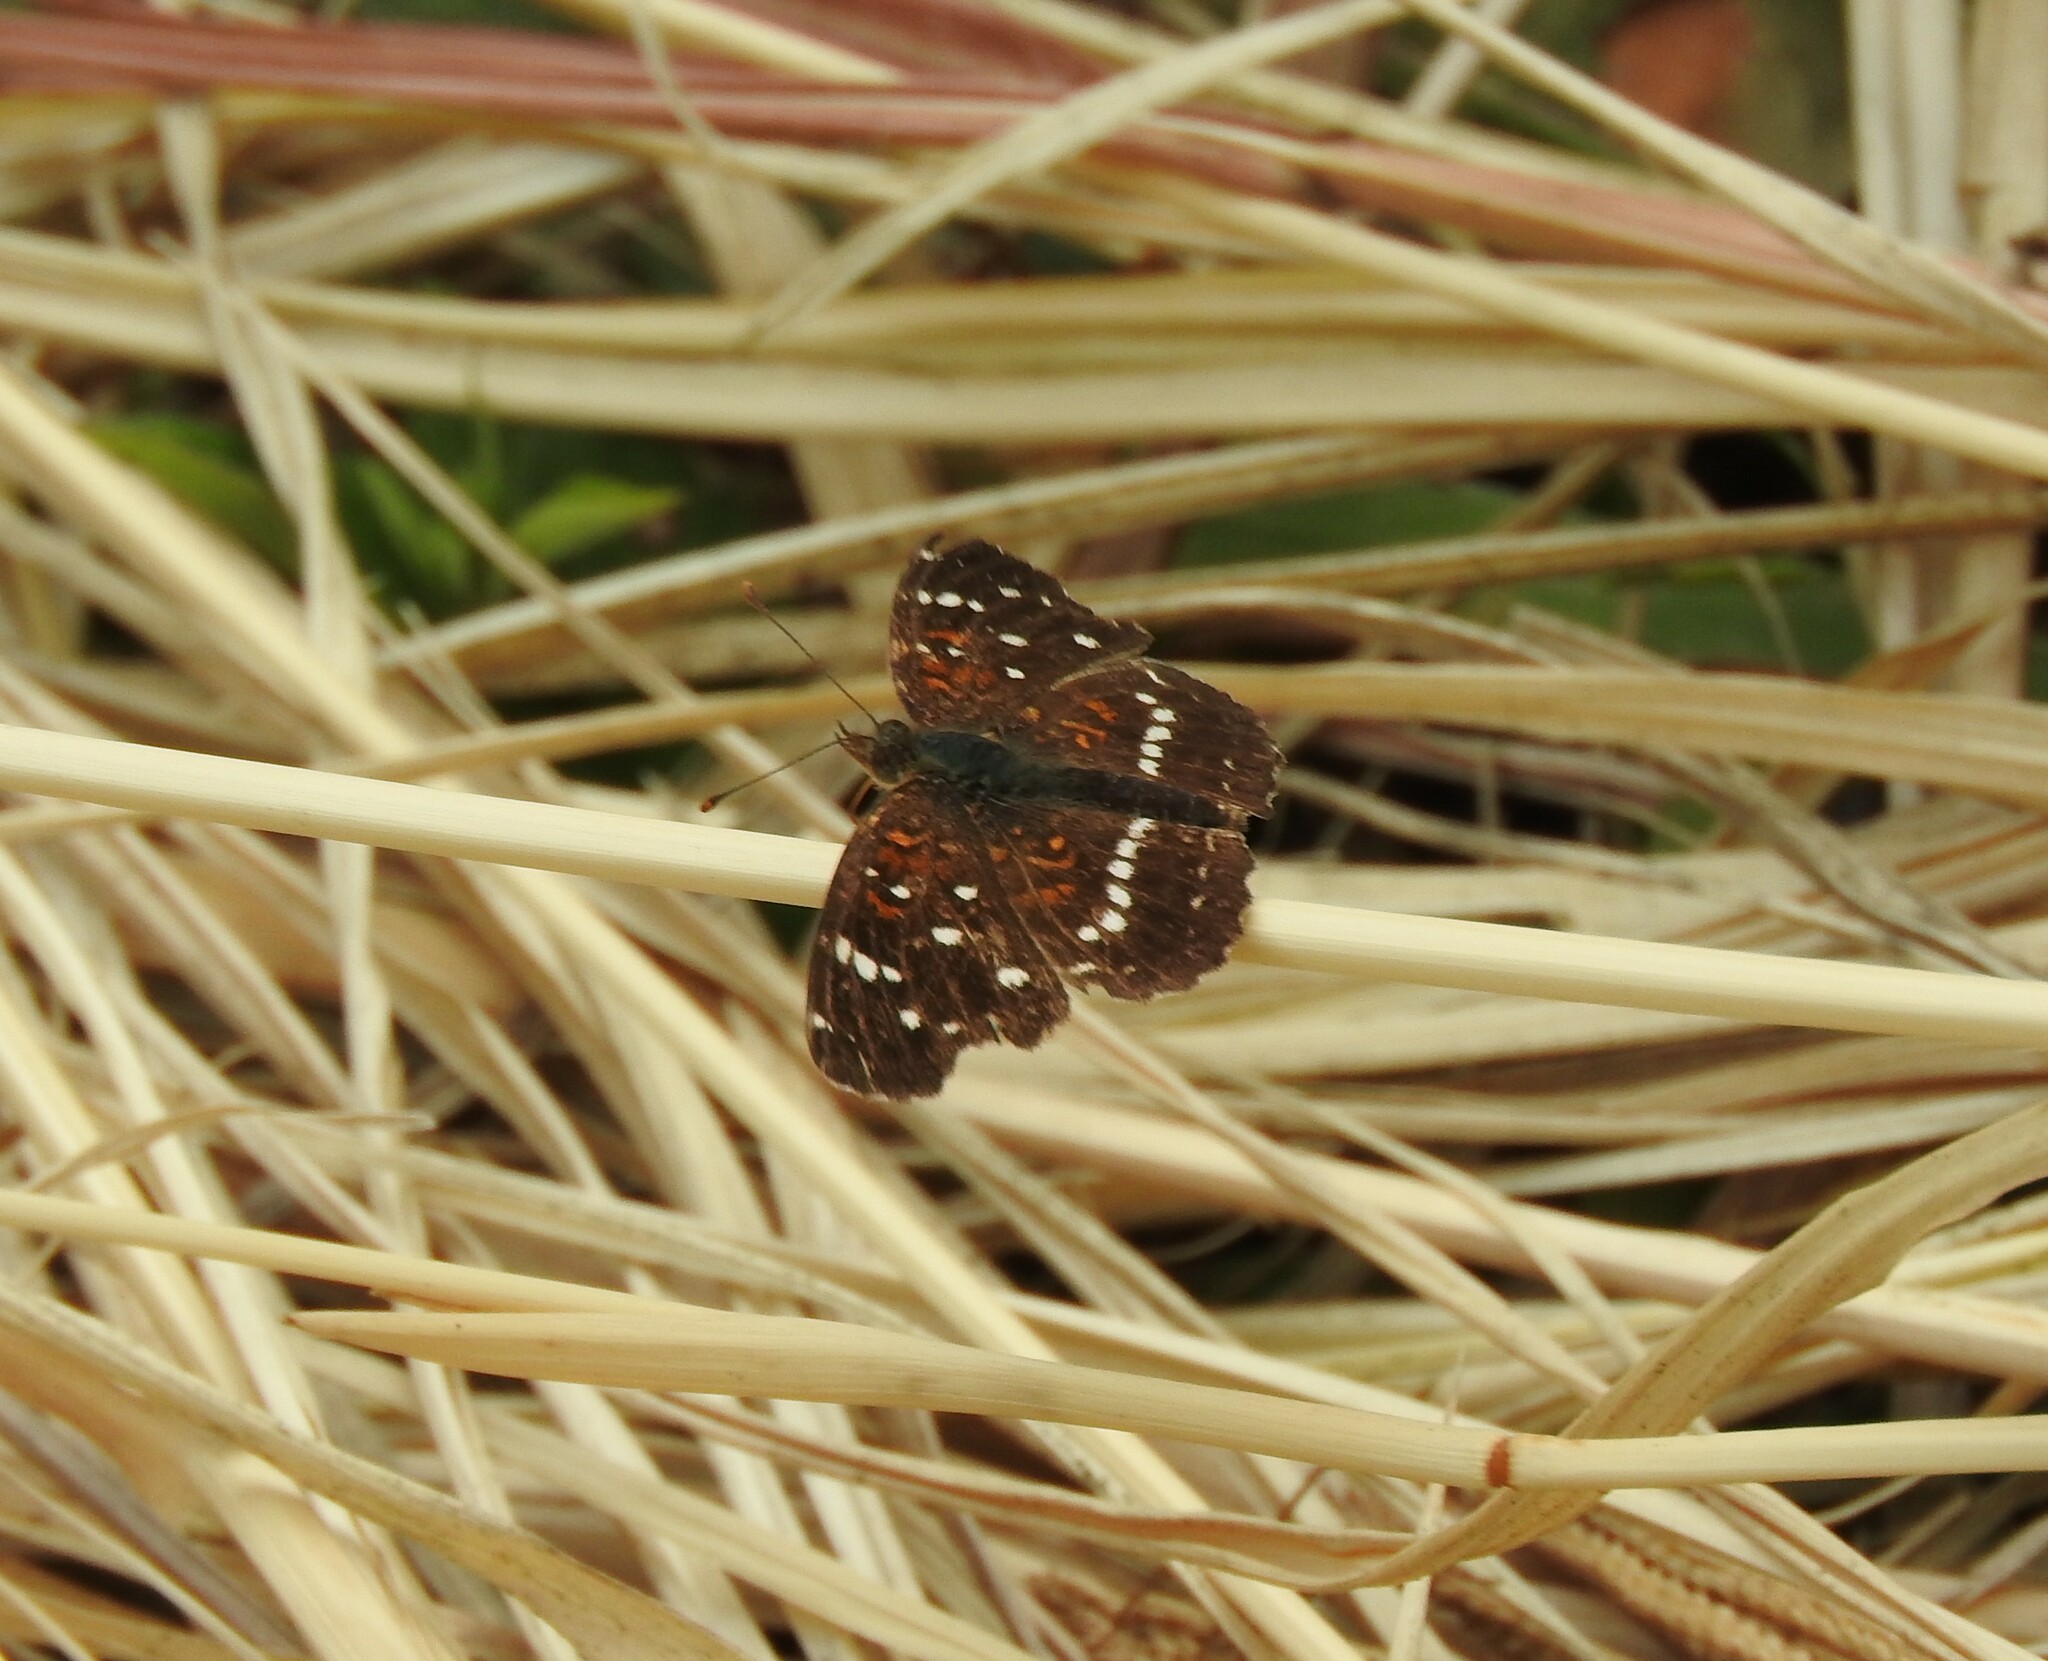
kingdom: Animalia
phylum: Arthropoda
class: Insecta
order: Lepidoptera
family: Nymphalidae
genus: Anthanassa
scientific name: Anthanassa texana
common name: Texan crescent
